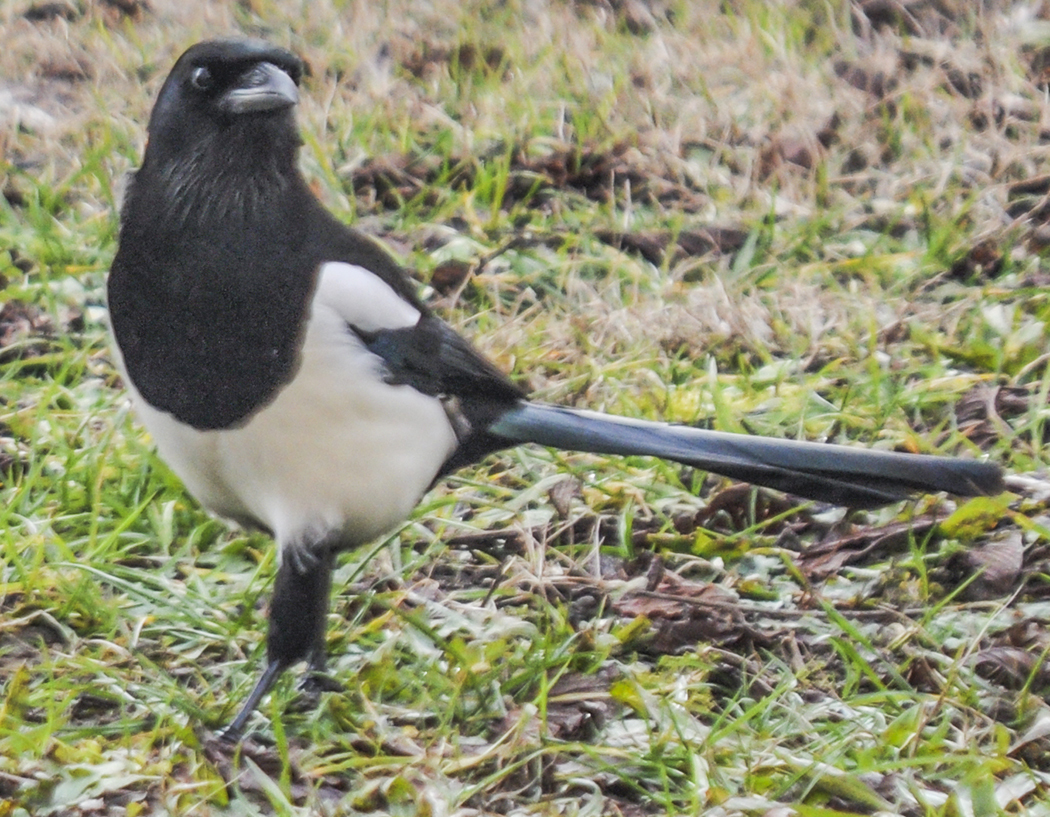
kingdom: Animalia
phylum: Chordata
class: Aves
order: Passeriformes
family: Corvidae
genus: Pica
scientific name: Pica pica
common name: Eurasian magpie
